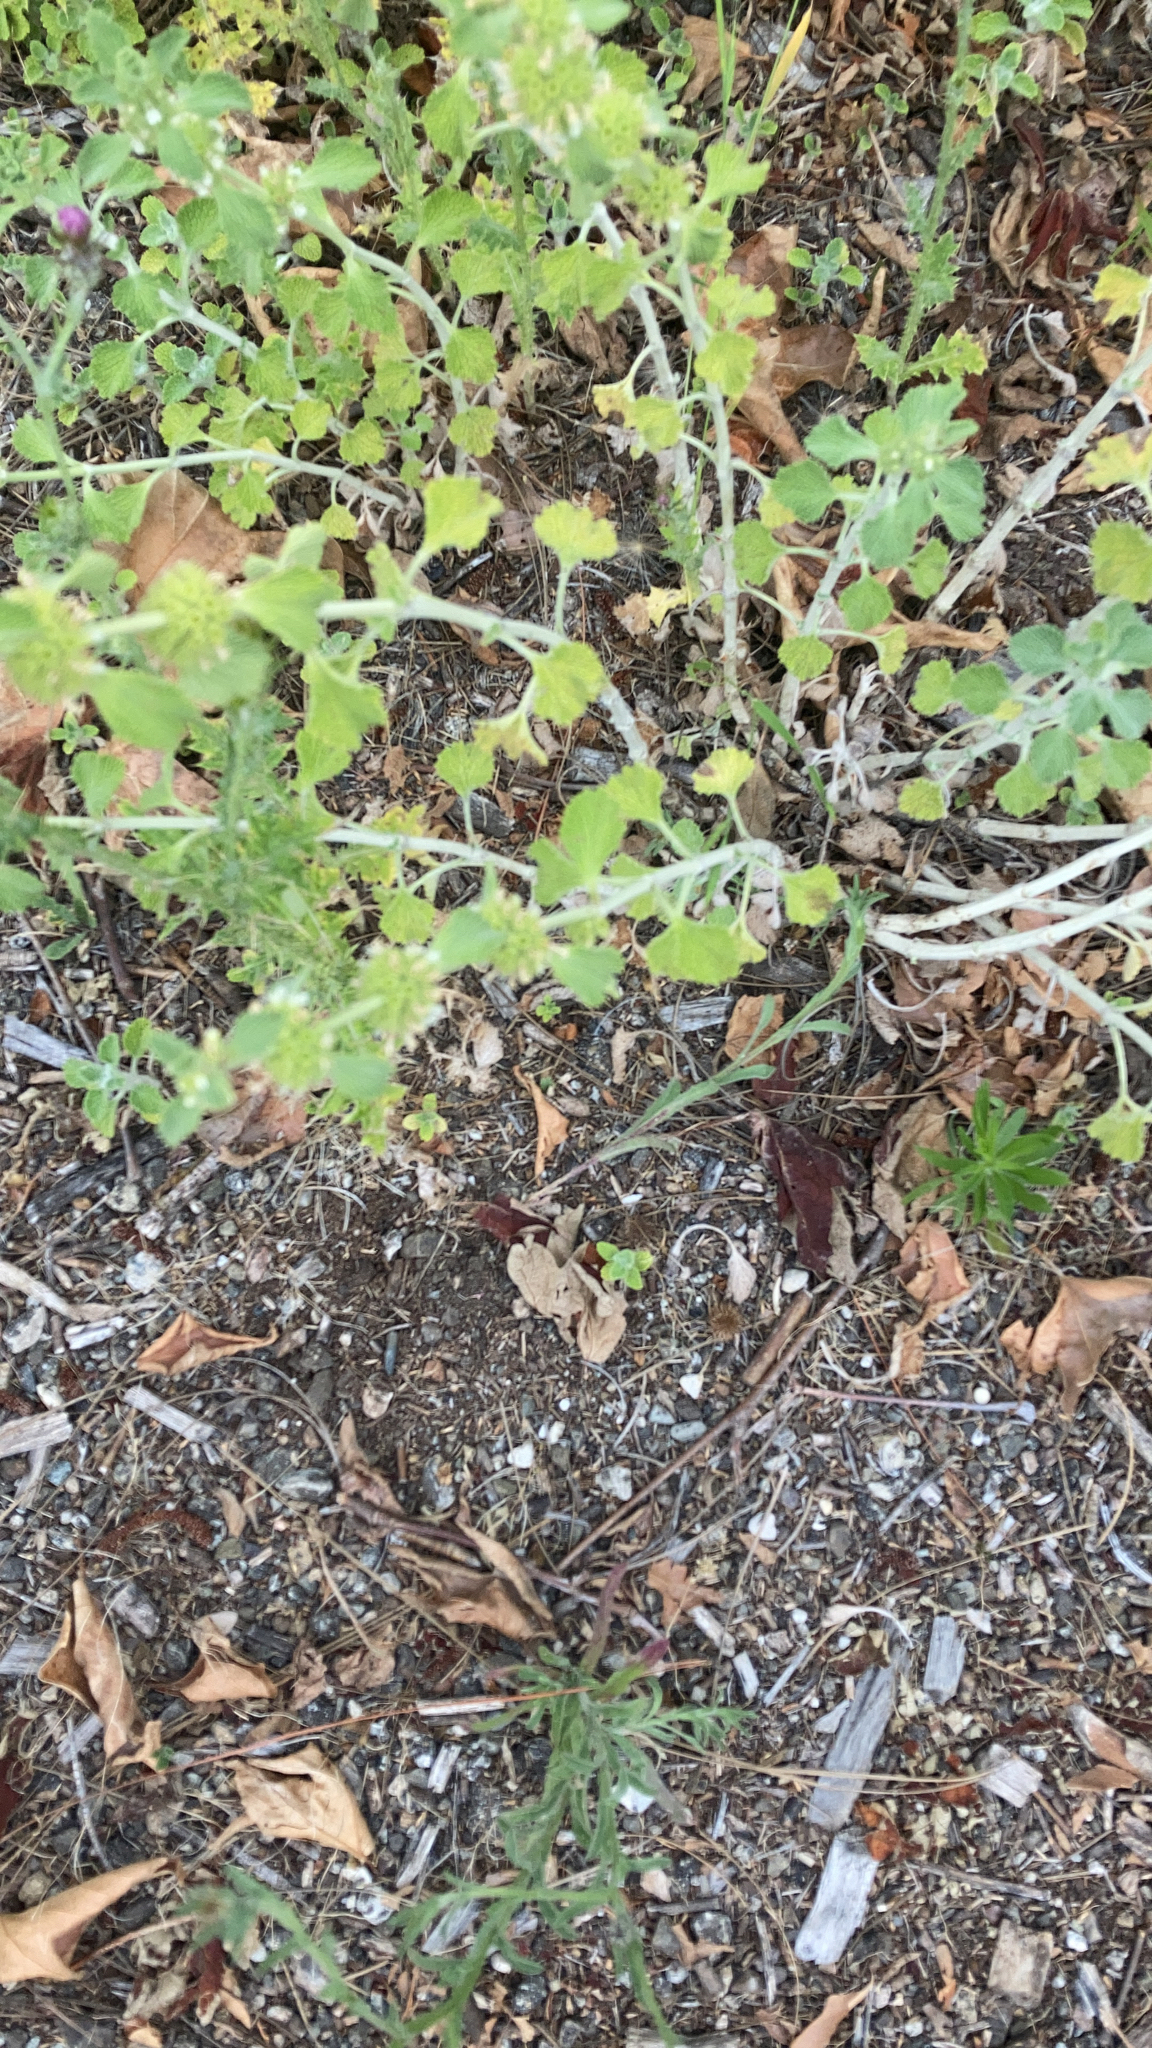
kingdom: Plantae
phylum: Tracheophyta
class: Magnoliopsida
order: Lamiales
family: Lamiaceae
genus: Marrubium
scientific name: Marrubium vulgare
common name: Horehound
